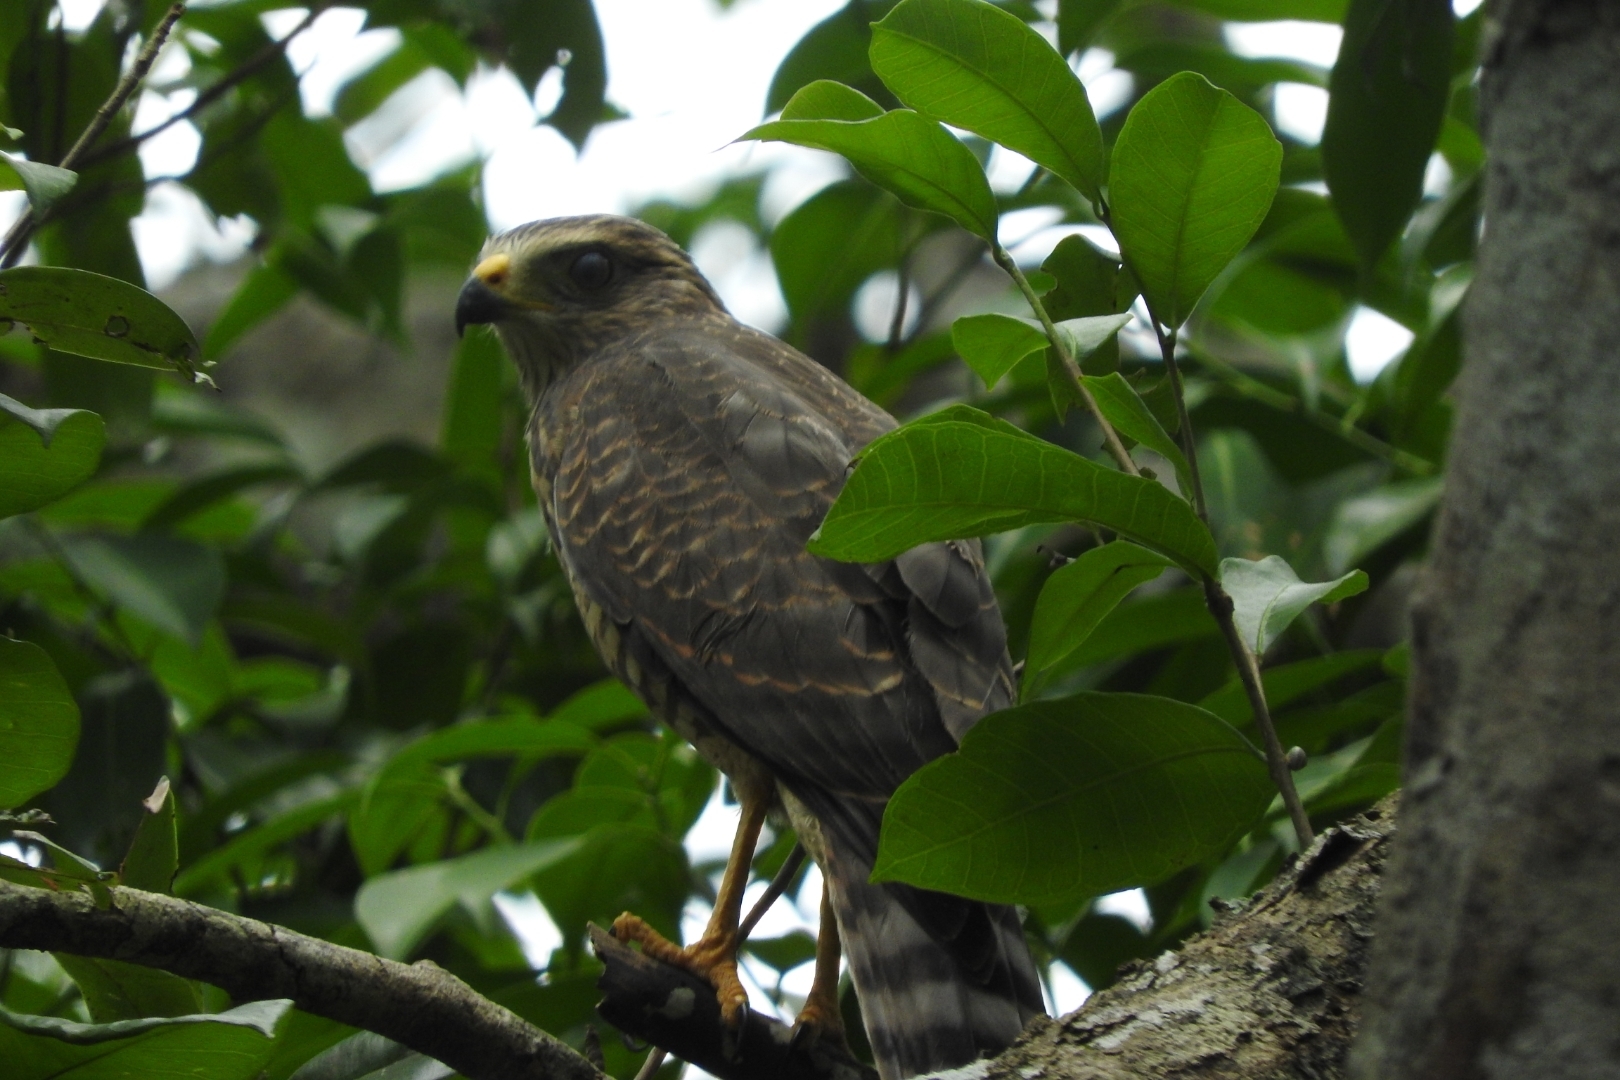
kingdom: Animalia
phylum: Chordata
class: Aves
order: Accipitriformes
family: Accipitridae
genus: Rupornis
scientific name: Rupornis magnirostris
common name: Roadside hawk
